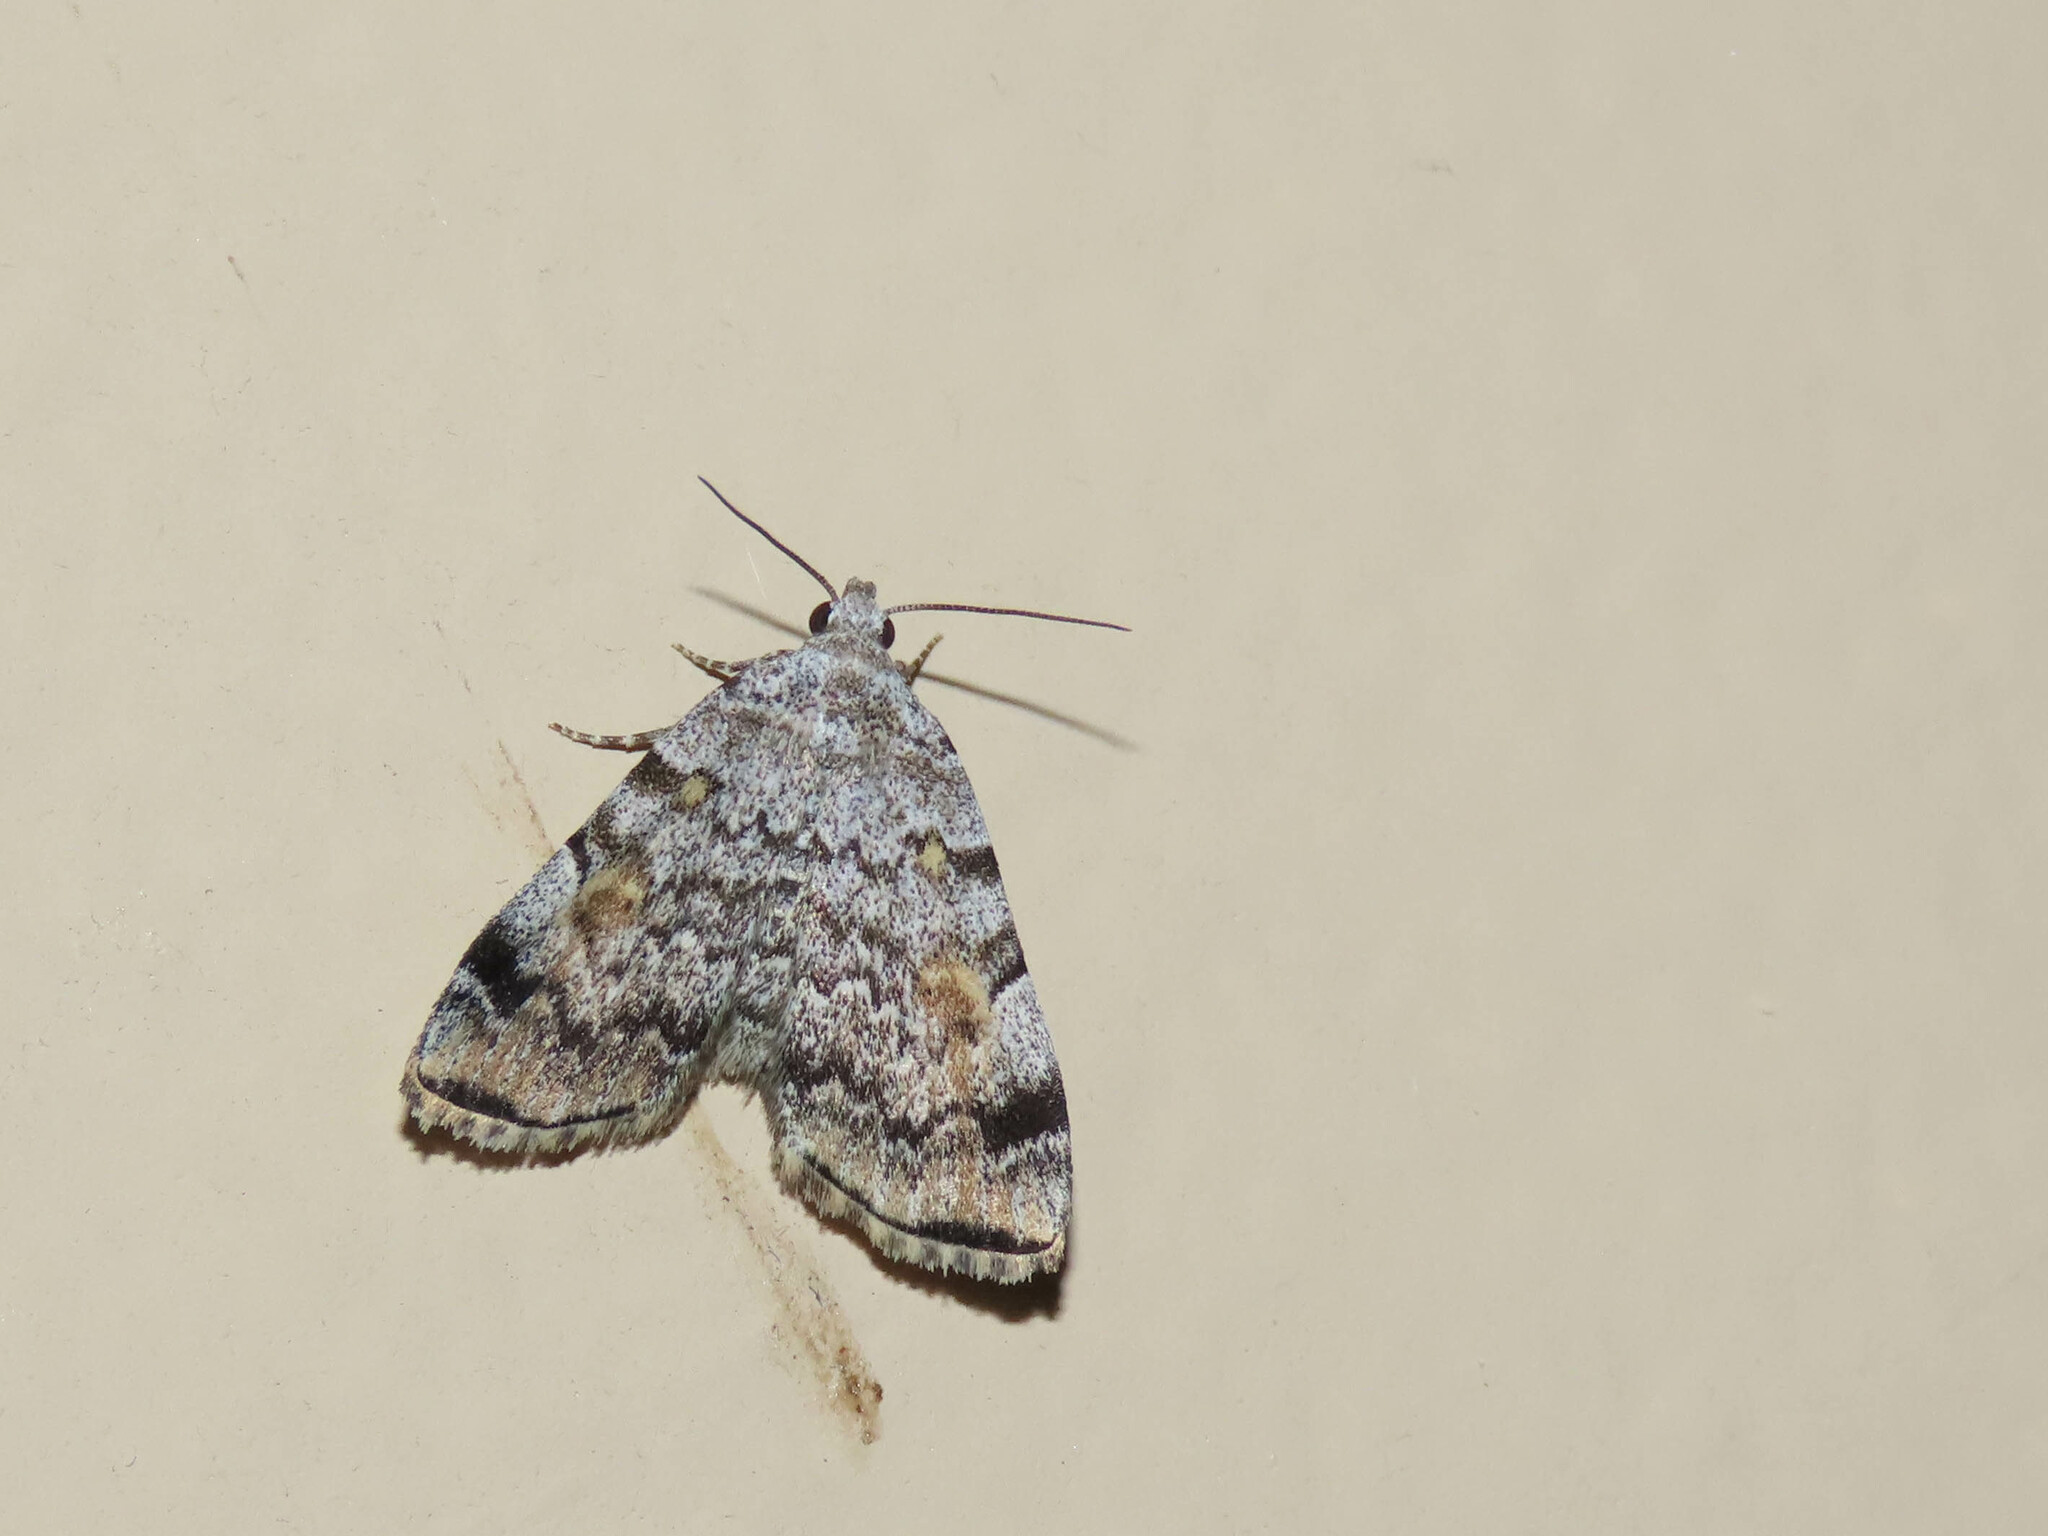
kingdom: Animalia
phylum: Arthropoda
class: Insecta
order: Lepidoptera
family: Erebidae
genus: Idia
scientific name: Idia americalis
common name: American idia moth
